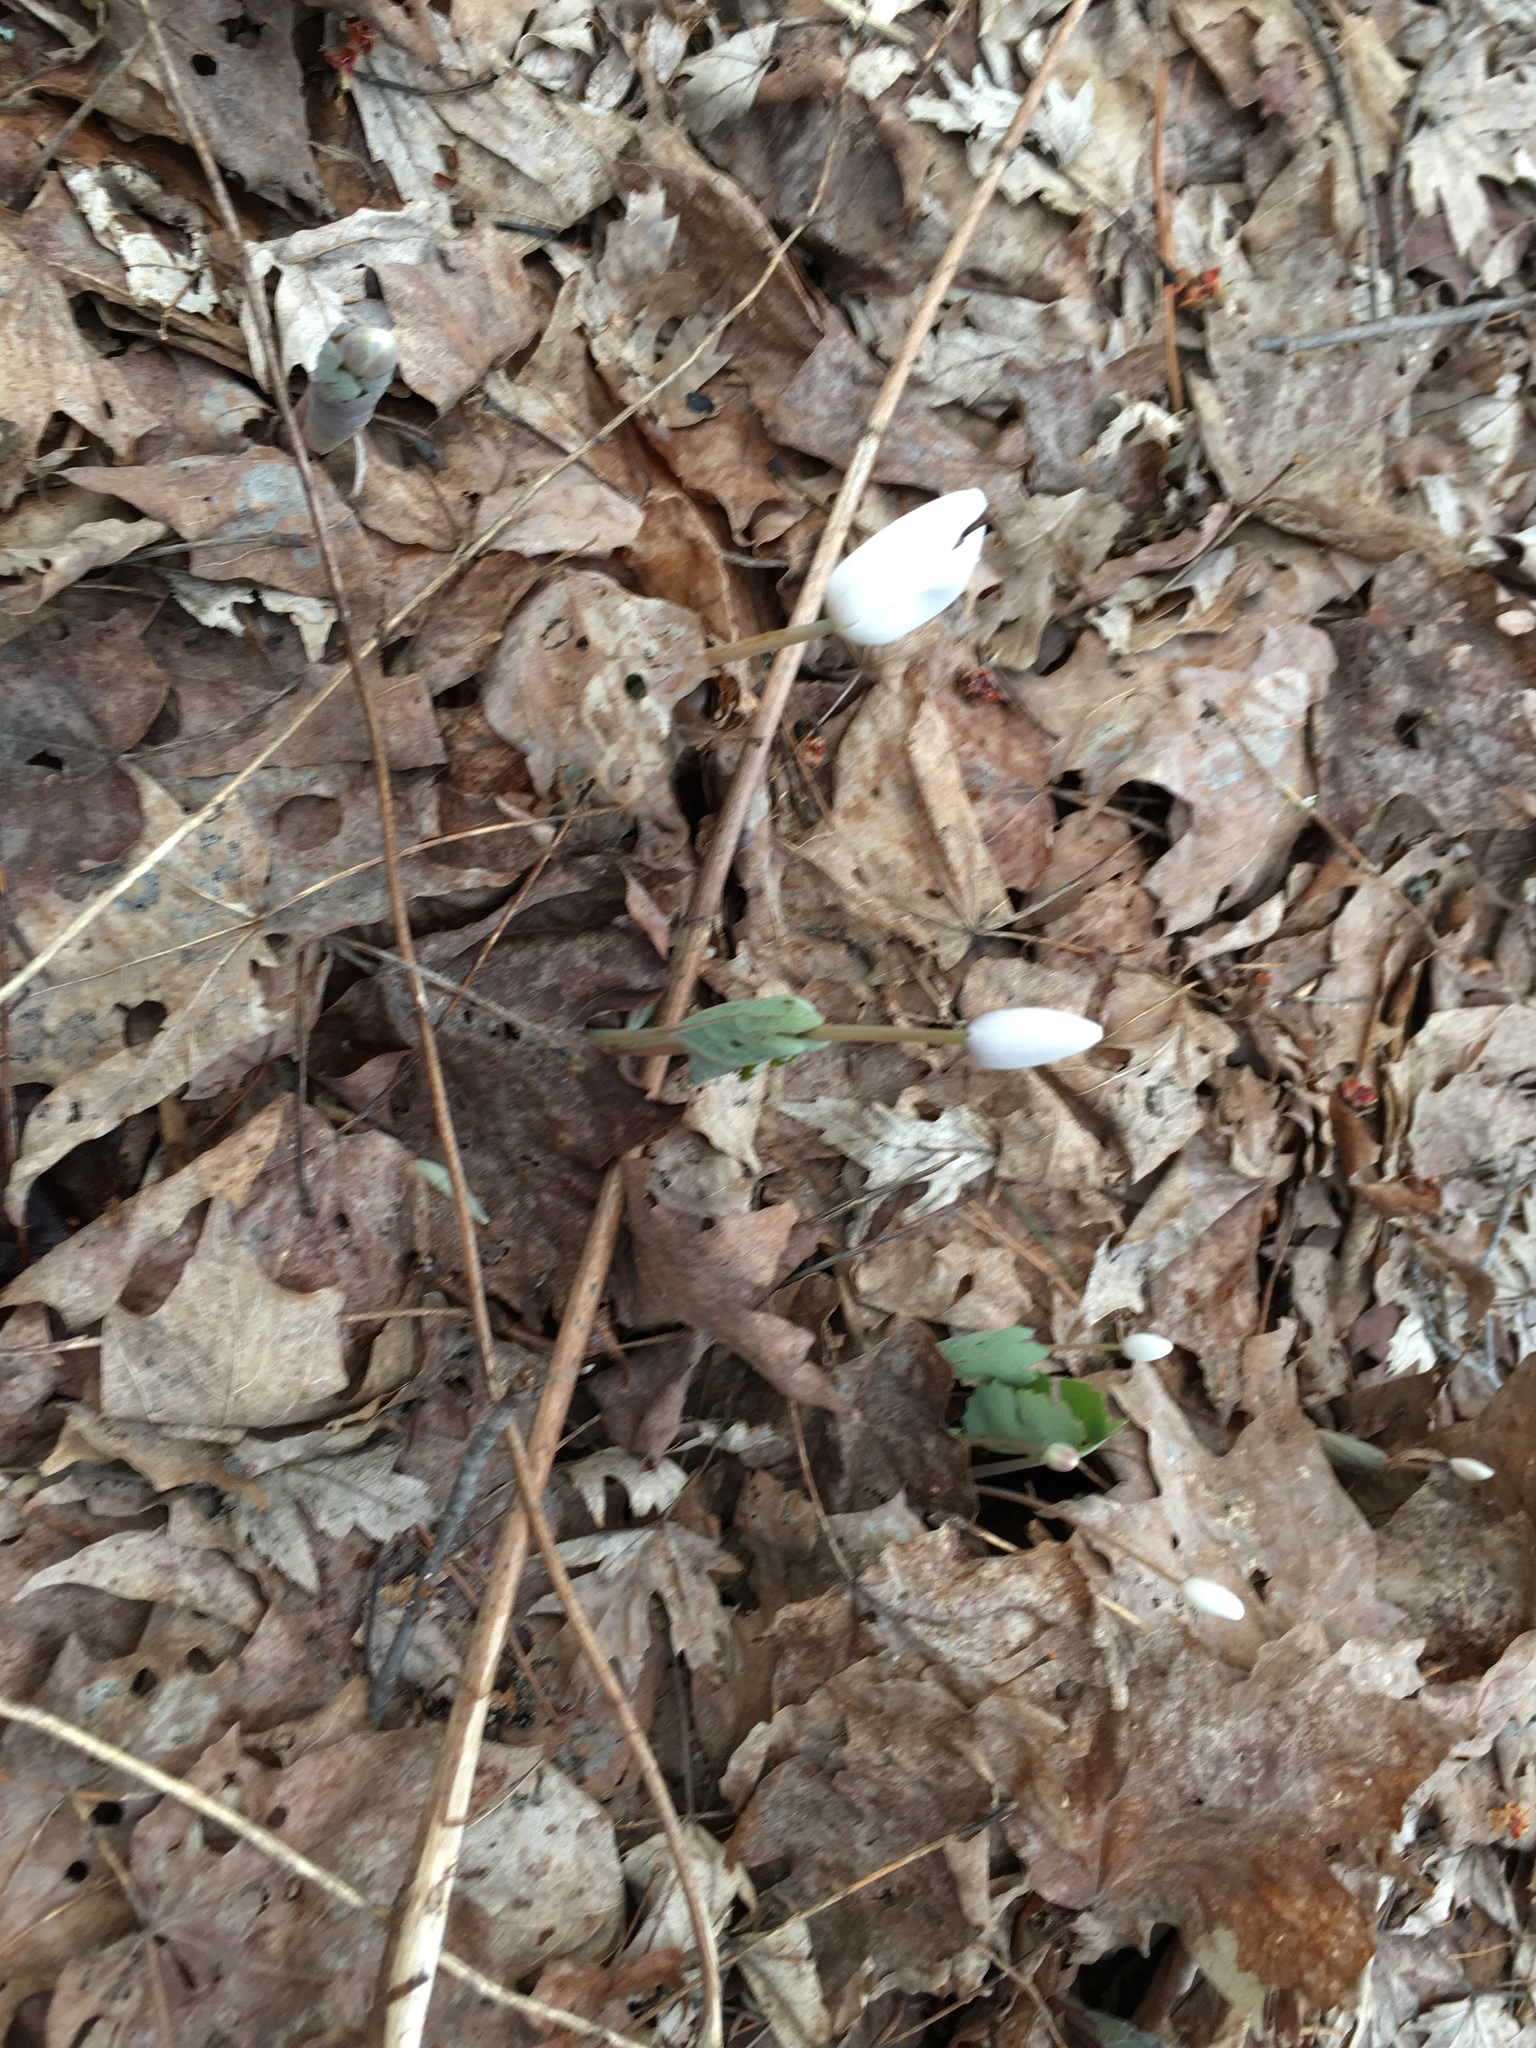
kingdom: Plantae
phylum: Tracheophyta
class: Magnoliopsida
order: Ranunculales
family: Papaveraceae
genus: Sanguinaria
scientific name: Sanguinaria canadensis
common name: Bloodroot
